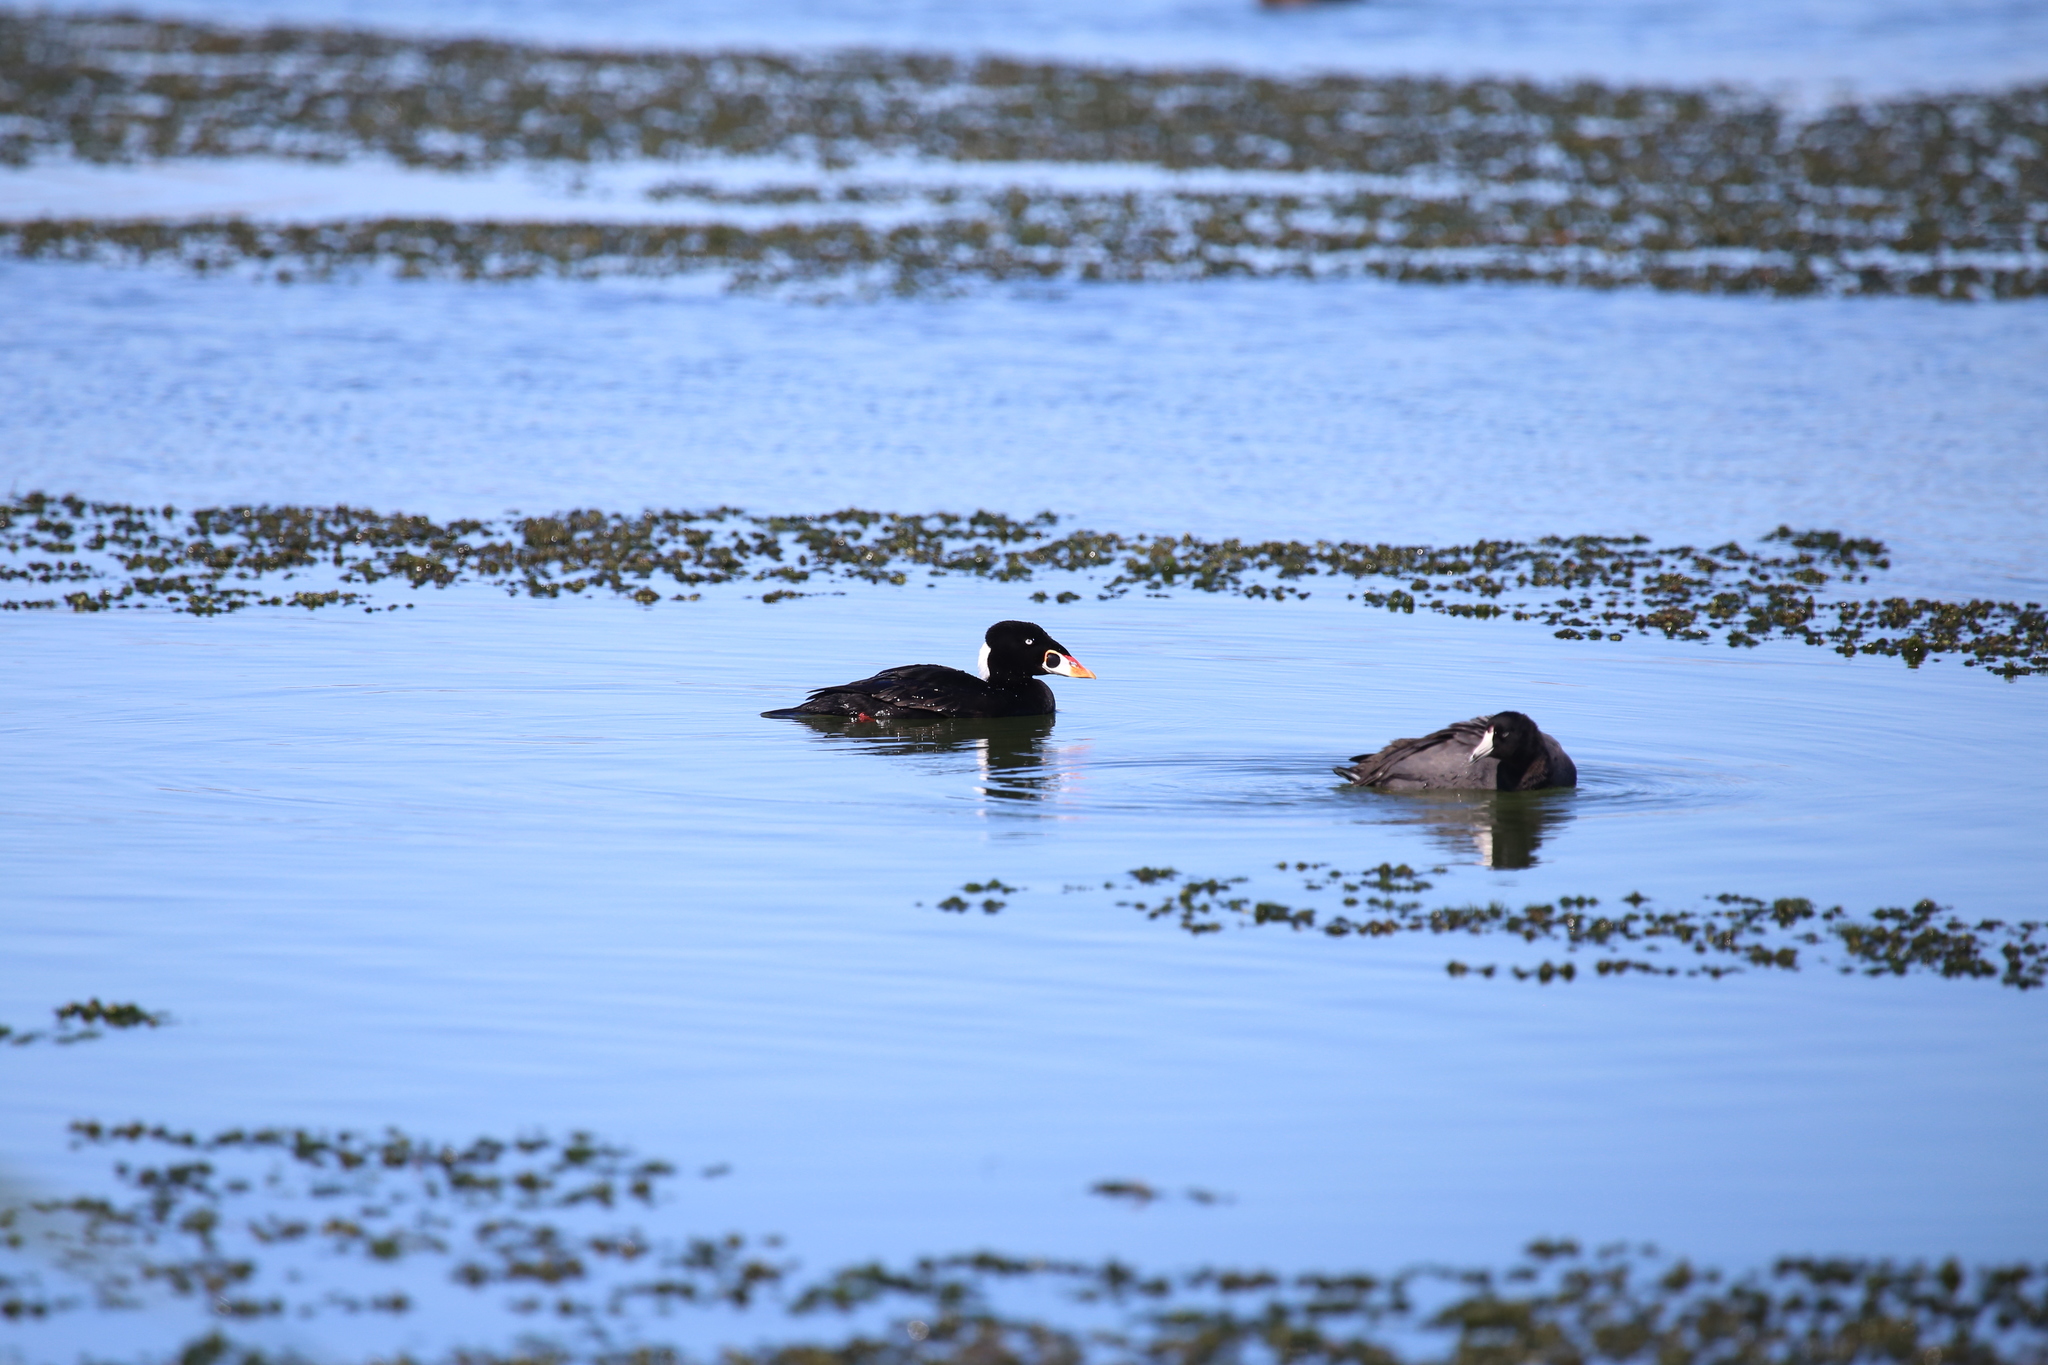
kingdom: Animalia
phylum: Chordata
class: Aves
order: Anseriformes
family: Anatidae
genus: Melanitta
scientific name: Melanitta perspicillata
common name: Surf scoter
